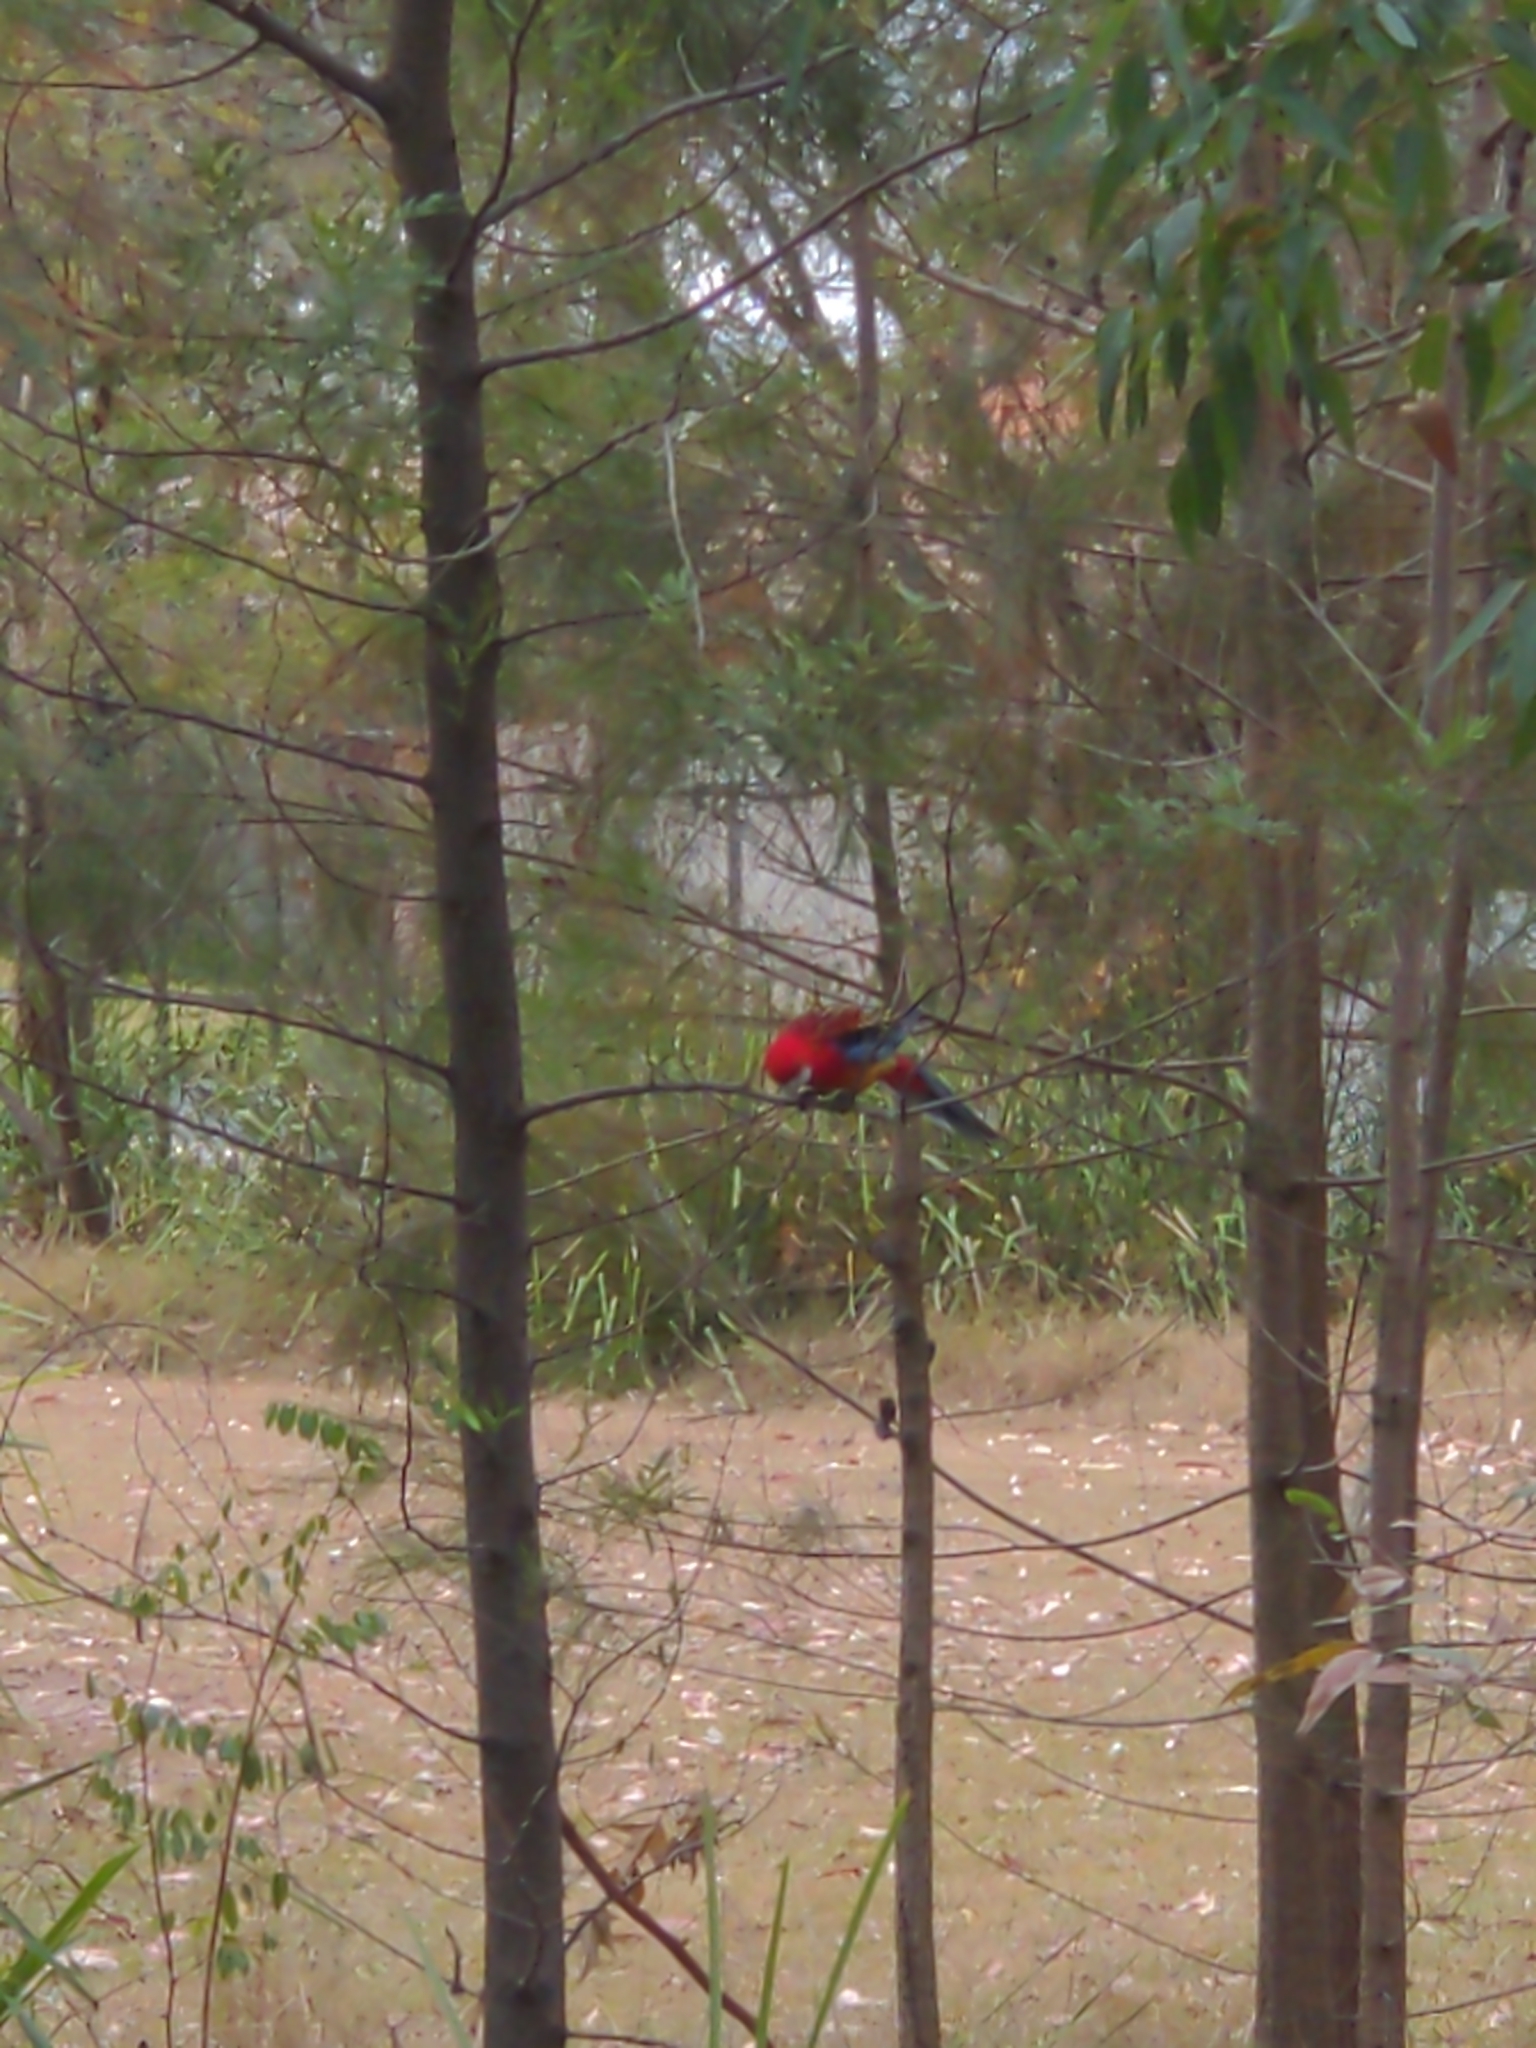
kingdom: Animalia
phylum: Chordata
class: Aves
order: Psittaciformes
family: Psittacidae
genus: Platycercus
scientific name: Platycercus elegans
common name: Crimson rosella
